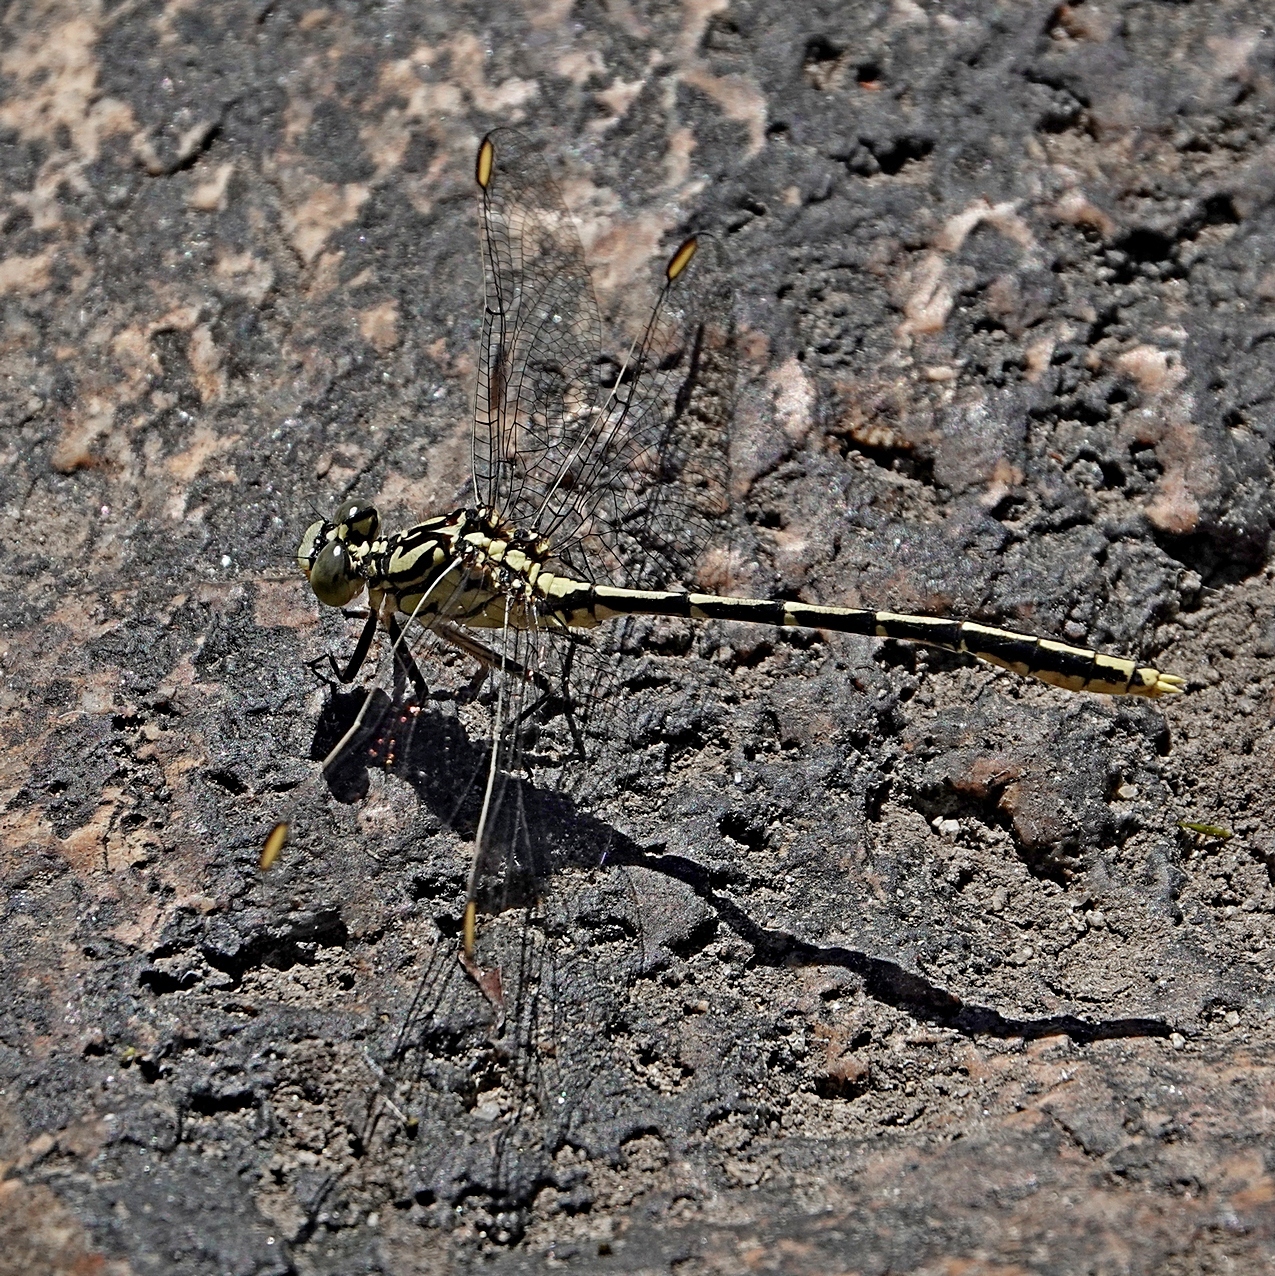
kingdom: Animalia
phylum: Arthropoda
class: Insecta
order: Odonata
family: Gomphidae
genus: Austrogomphus
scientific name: Austrogomphus guerini
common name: Yellow-striped hunter
